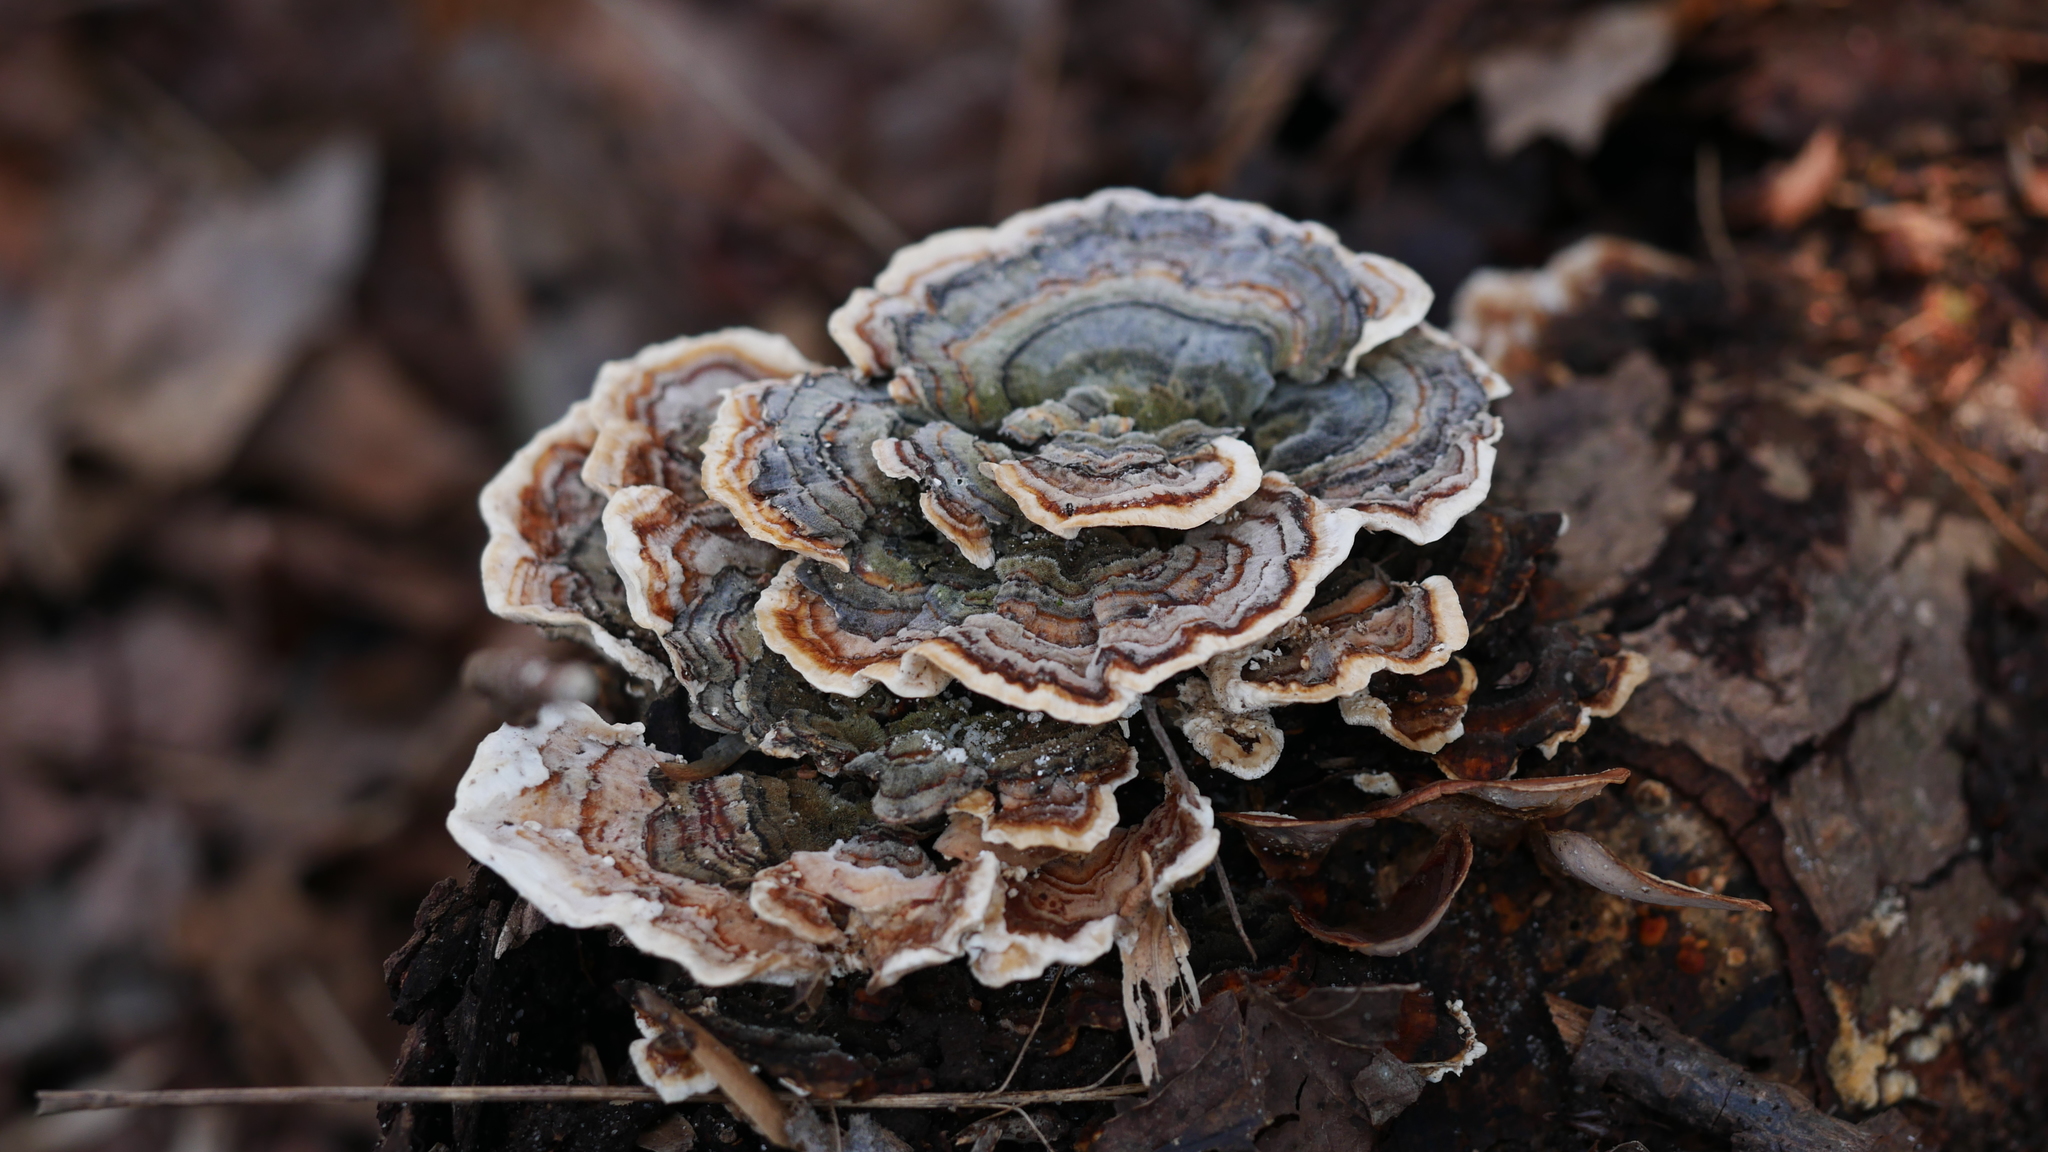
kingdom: Fungi
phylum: Basidiomycota
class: Agaricomycetes
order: Polyporales
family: Polyporaceae
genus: Trametes
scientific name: Trametes versicolor
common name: Turkeytail
